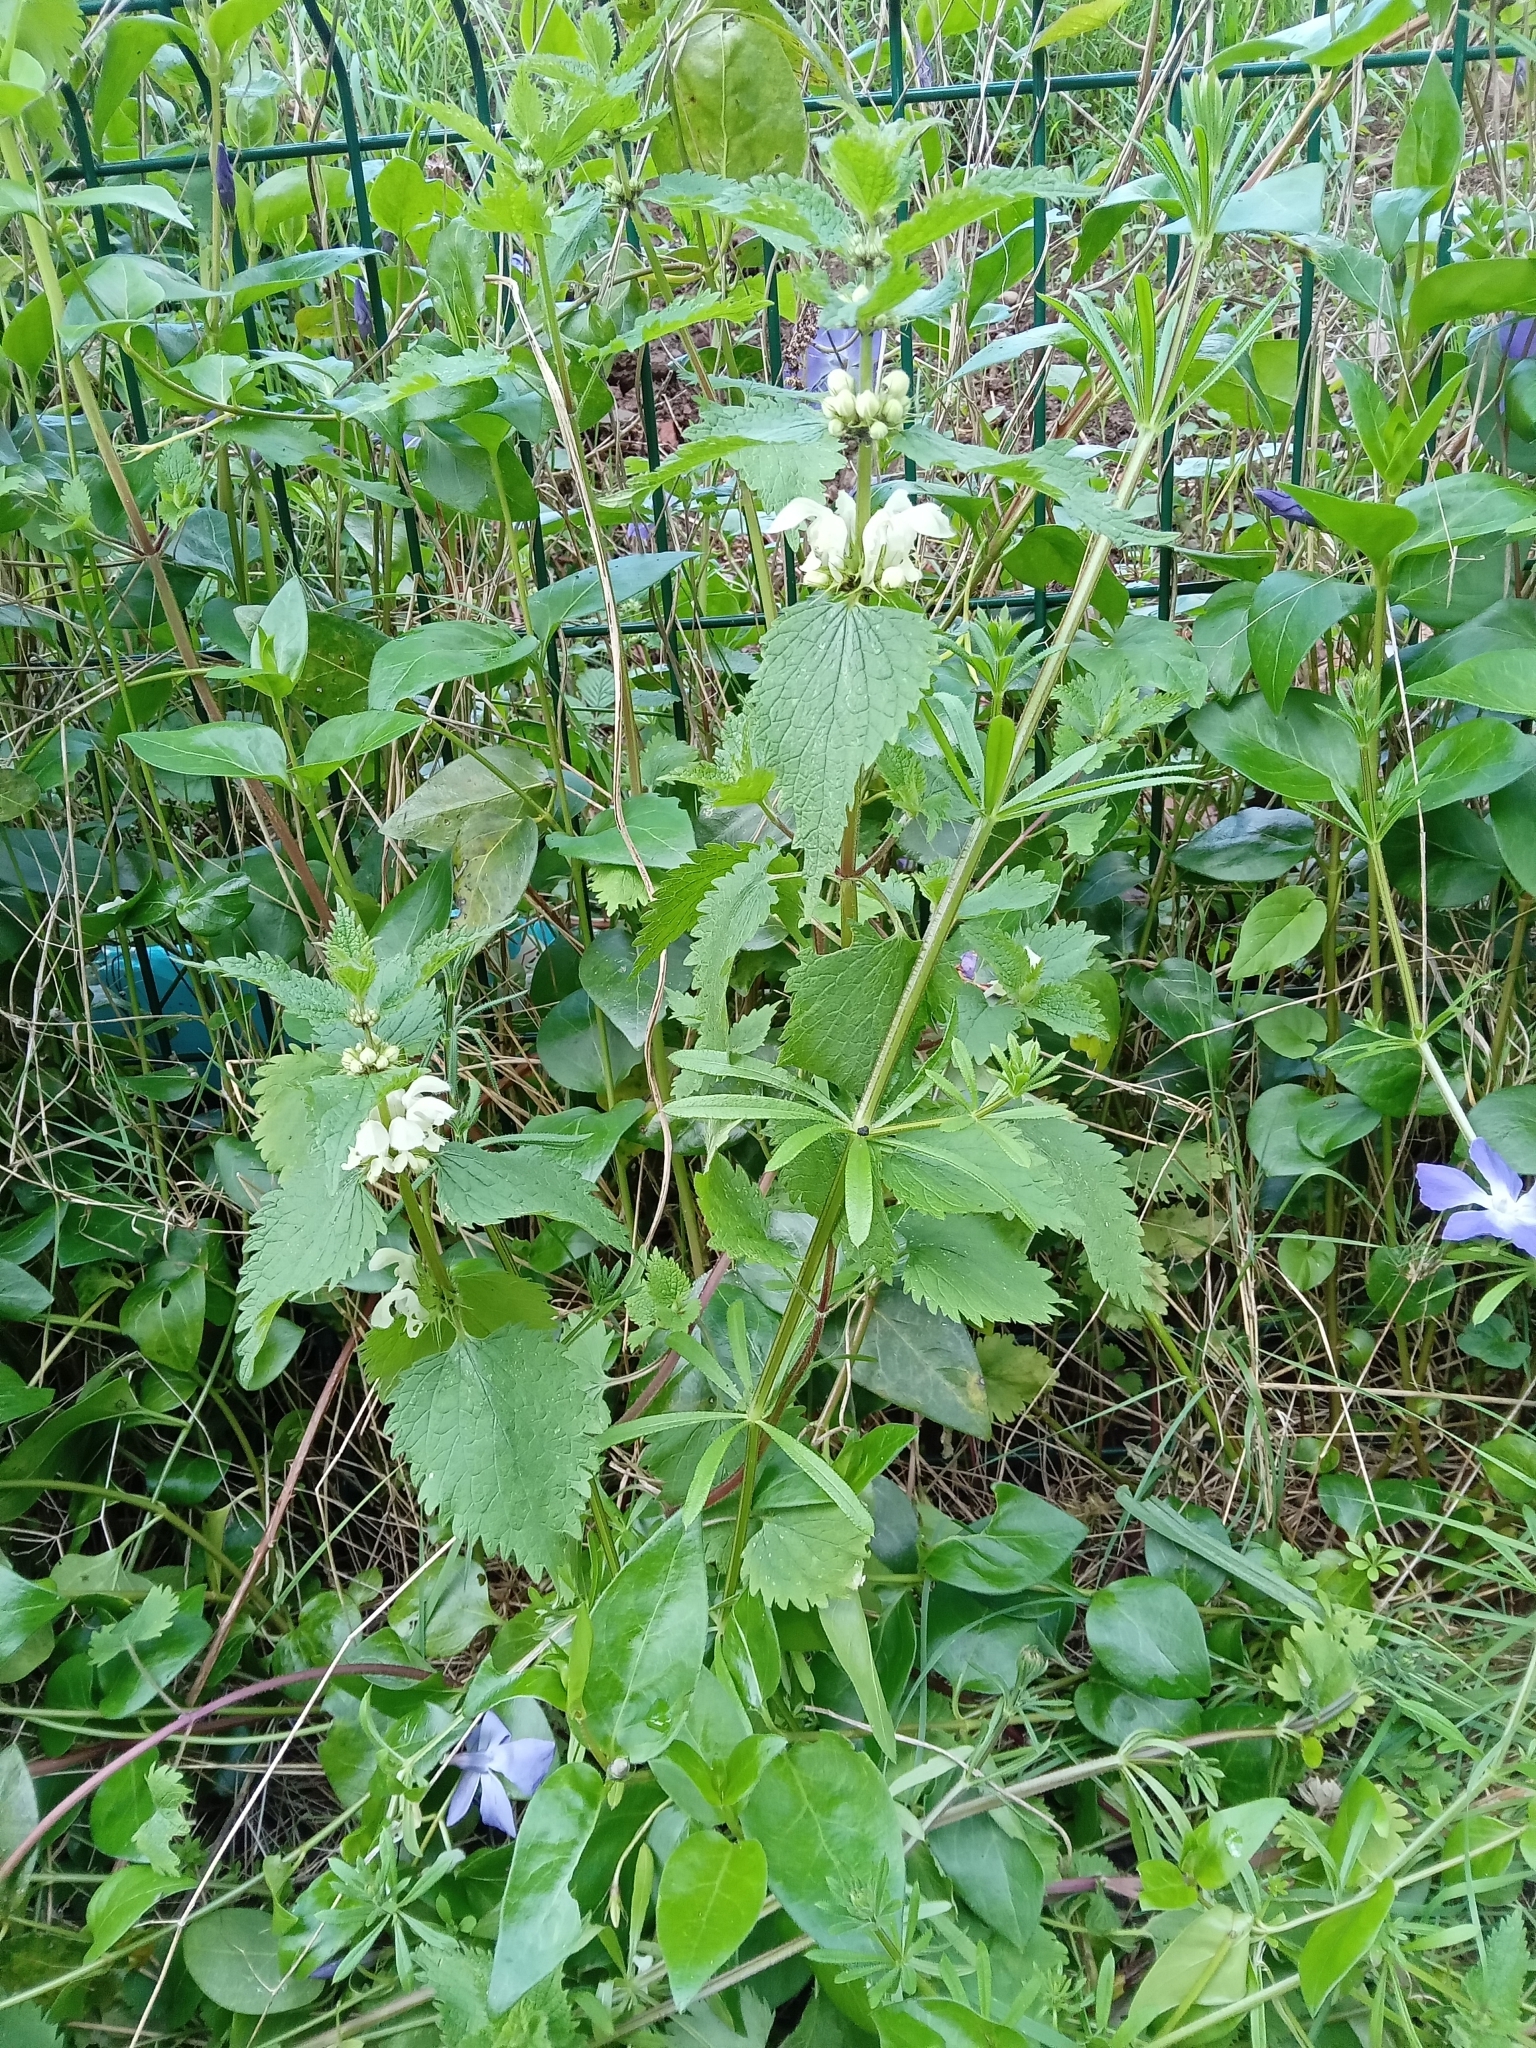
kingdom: Plantae
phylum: Tracheophyta
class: Magnoliopsida
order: Lamiales
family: Lamiaceae
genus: Lamium
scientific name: Lamium album
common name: White dead-nettle
